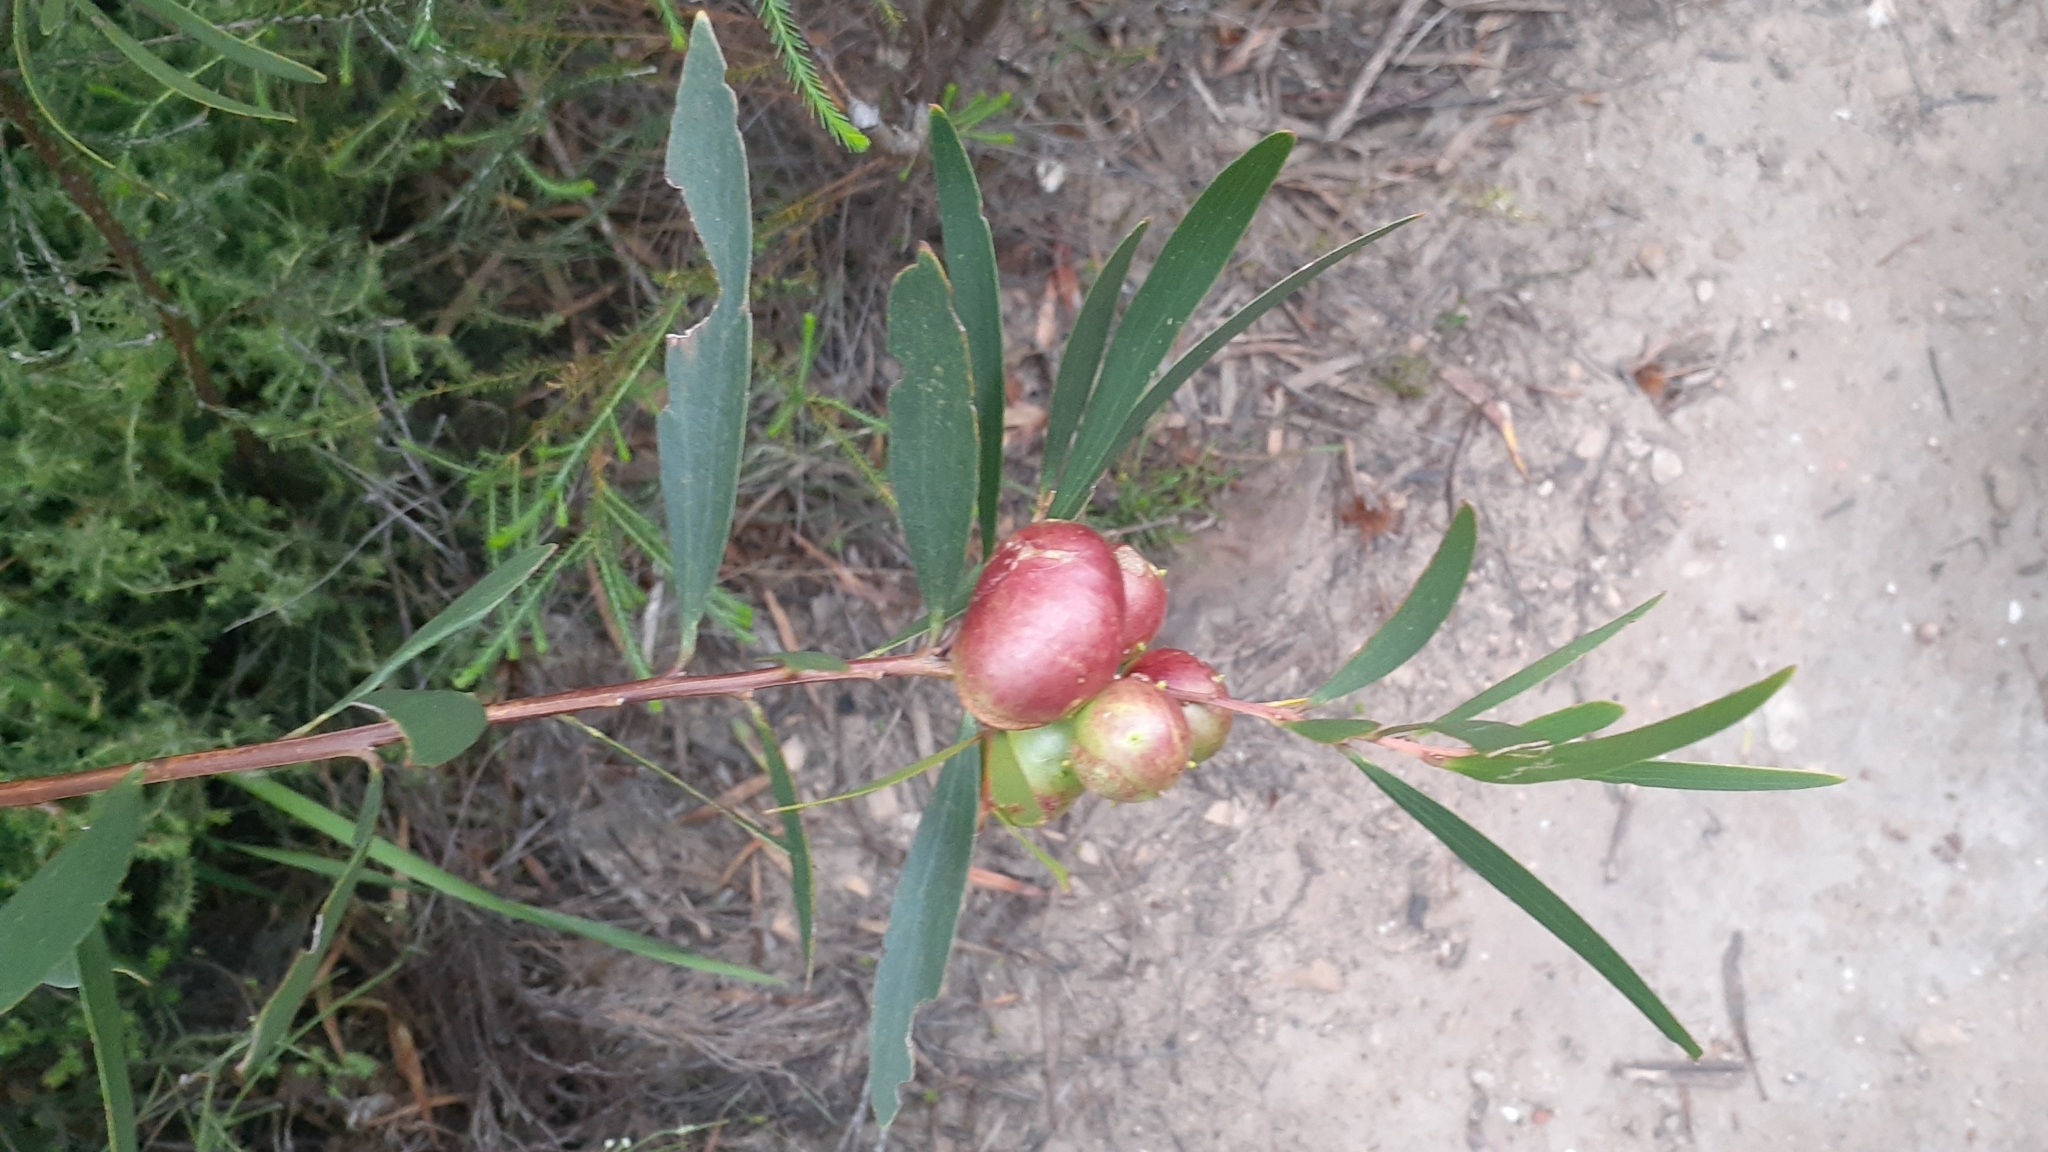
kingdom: Plantae
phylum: Tracheophyta
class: Magnoliopsida
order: Fabales
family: Fabaceae
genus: Acacia
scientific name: Acacia longifolia
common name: Sydney golden wattle
